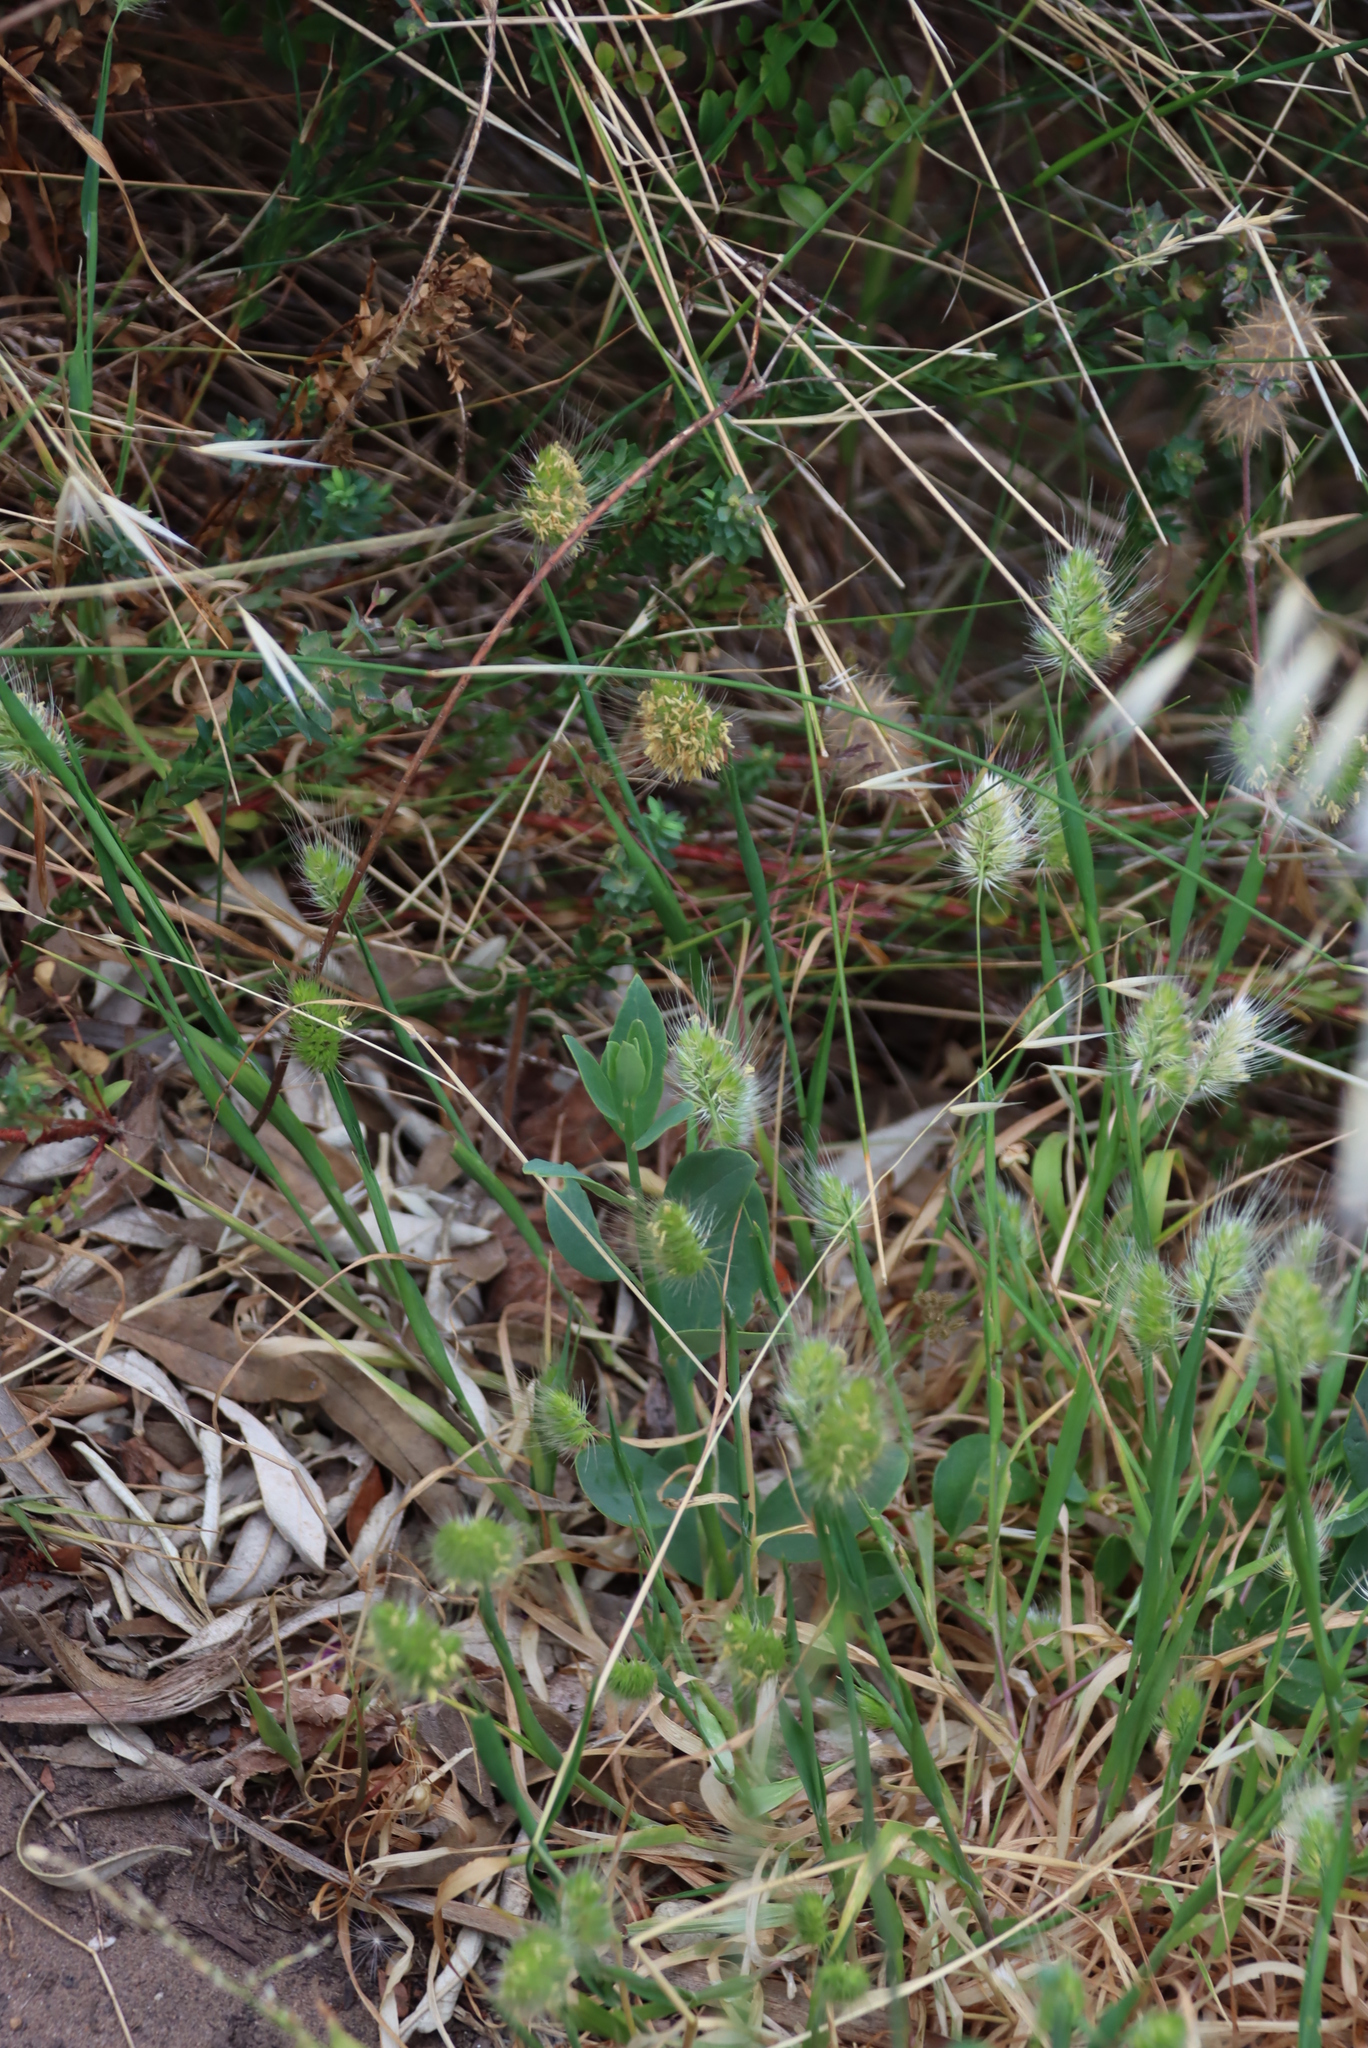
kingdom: Plantae
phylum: Tracheophyta
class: Liliopsida
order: Poales
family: Poaceae
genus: Lagurus
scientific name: Lagurus ovatus
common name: Hare's-tail
